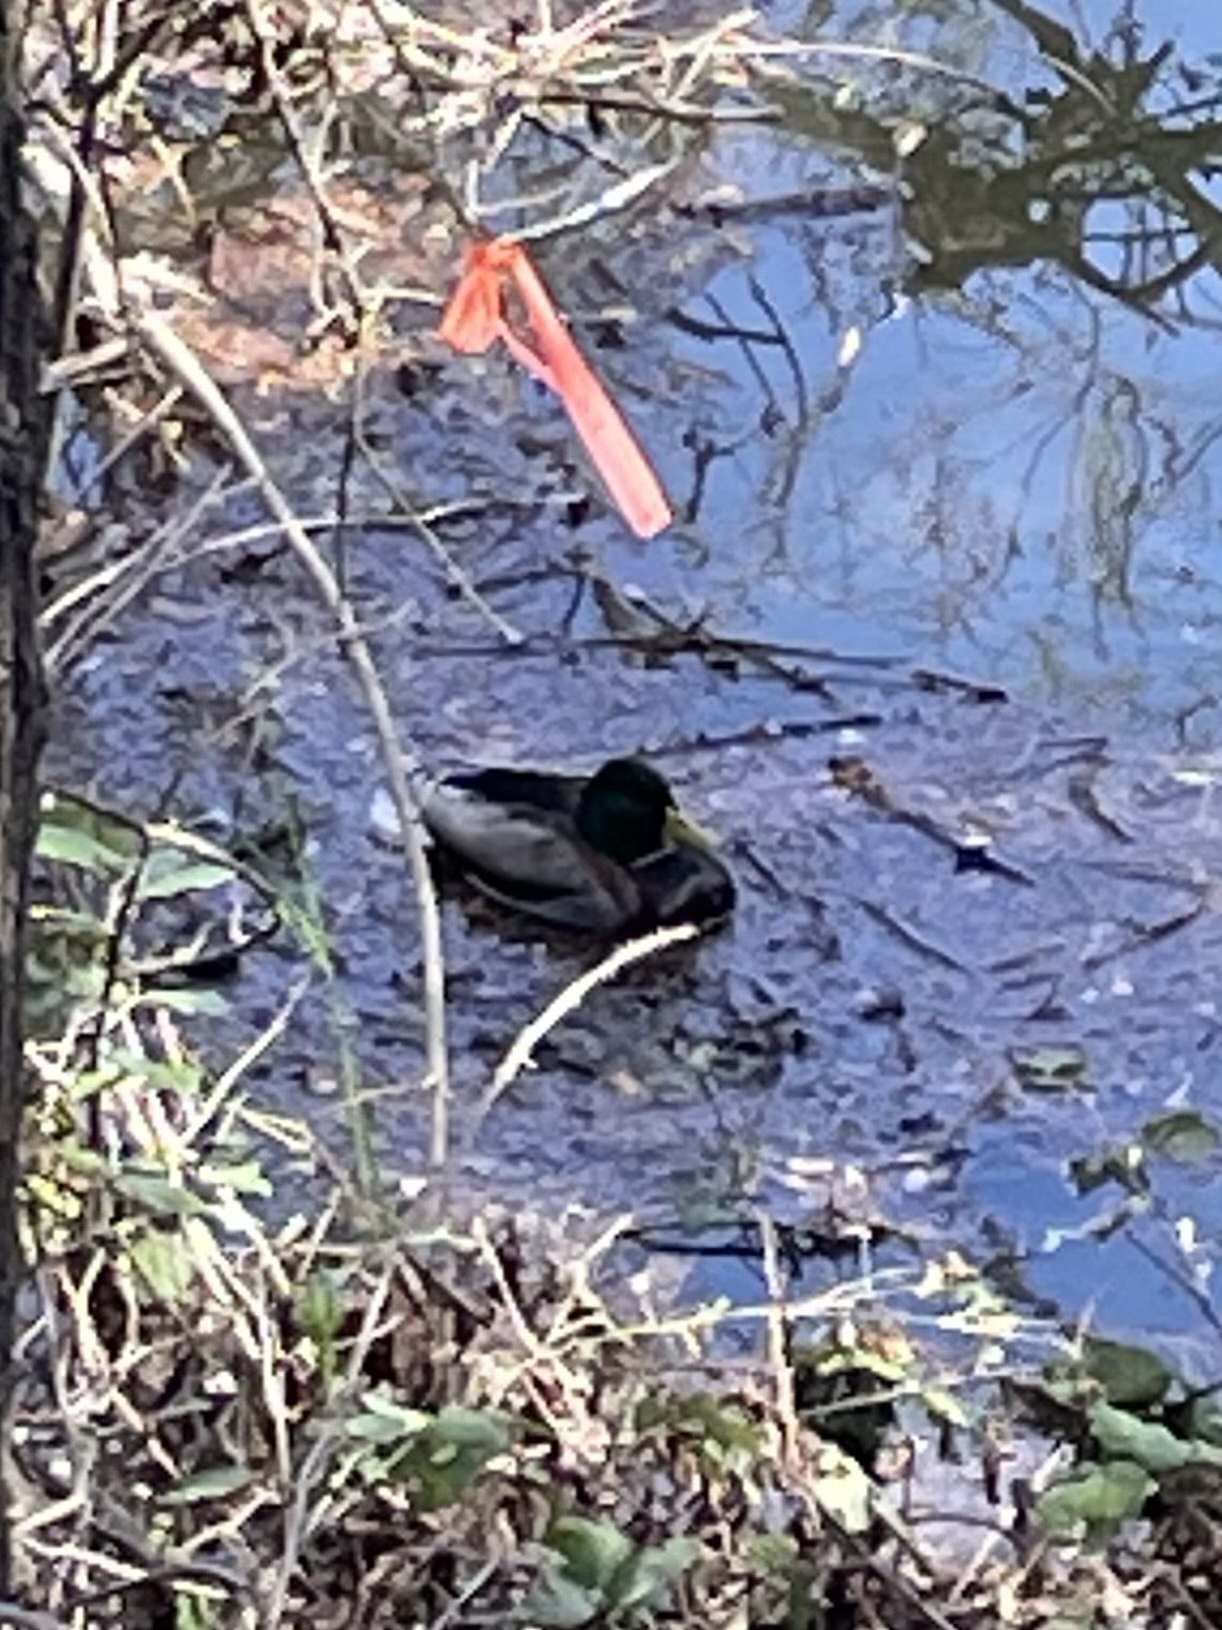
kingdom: Animalia
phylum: Chordata
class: Aves
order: Anseriformes
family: Anatidae
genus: Anas
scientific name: Anas platyrhynchos
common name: Mallard
